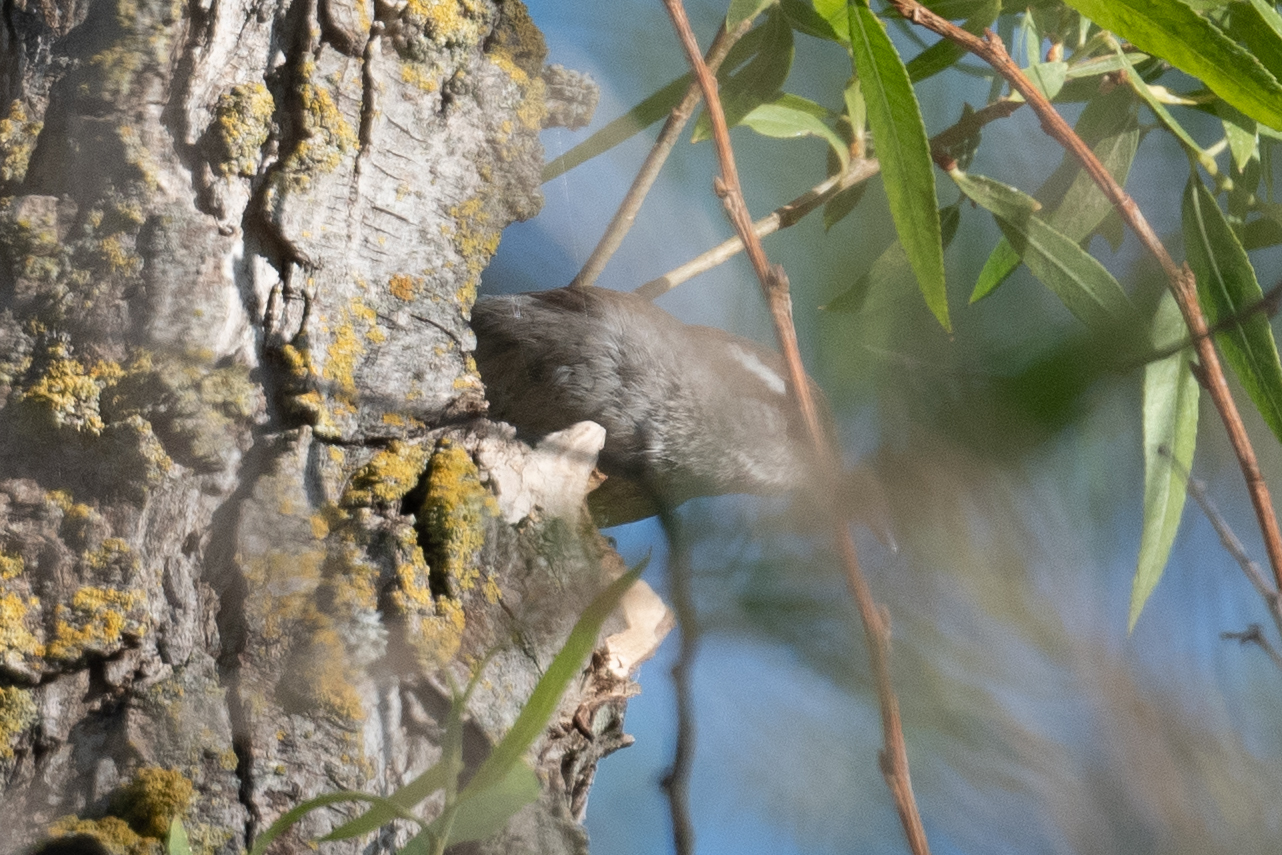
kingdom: Animalia
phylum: Chordata
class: Aves
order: Passeriformes
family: Troglodytidae
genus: Thryomanes
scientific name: Thryomanes bewickii
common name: Bewick's wren
